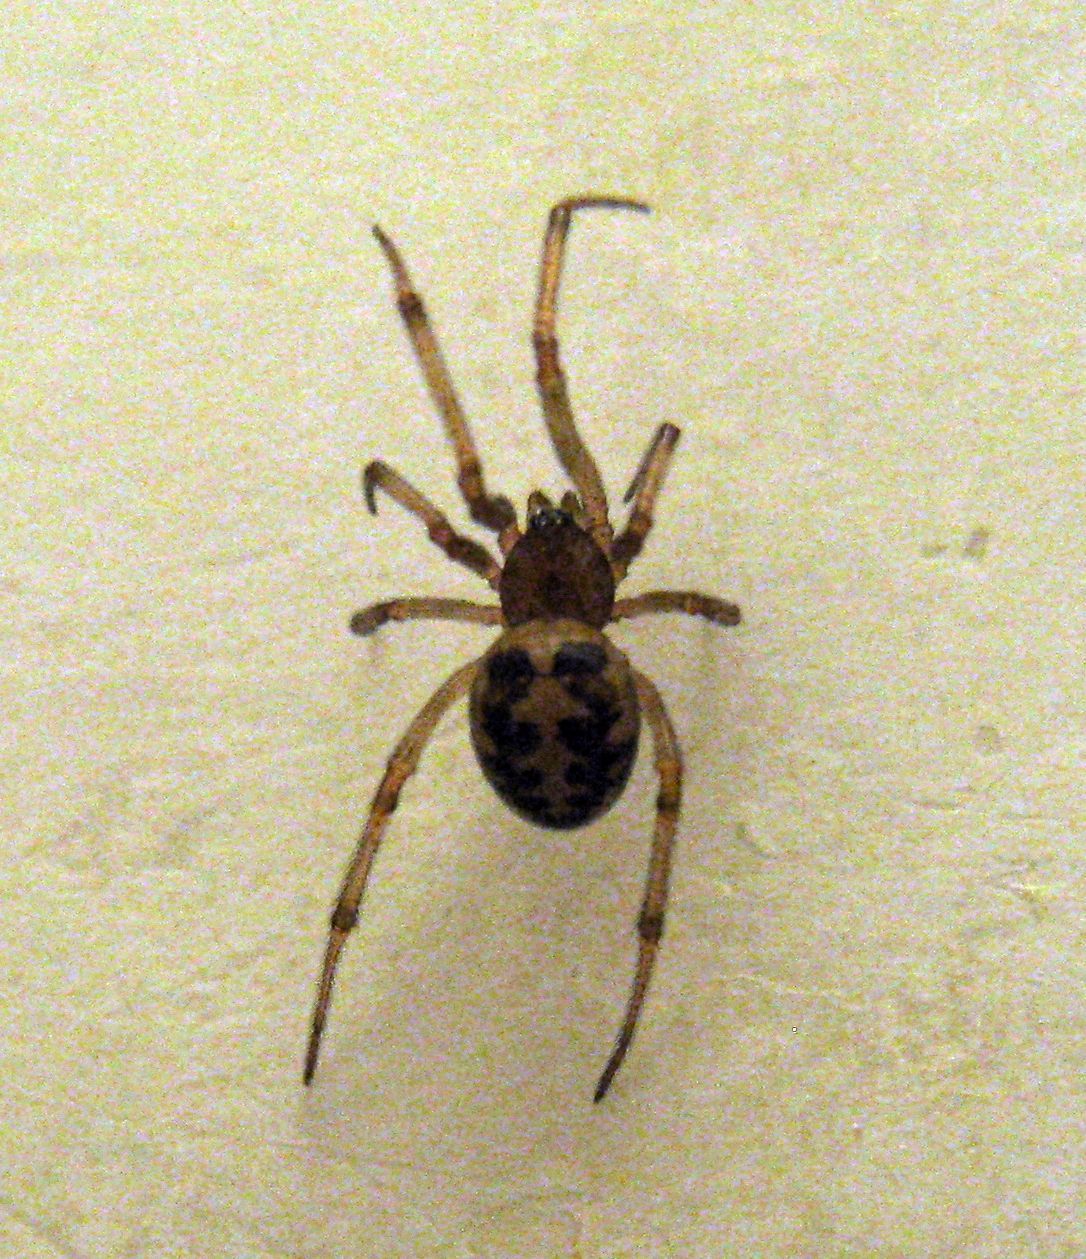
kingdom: Animalia
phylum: Arthropoda
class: Arachnida
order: Araneae
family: Theridiidae
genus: Steatoda
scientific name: Steatoda triangulosa
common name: Triangulate bud spider
